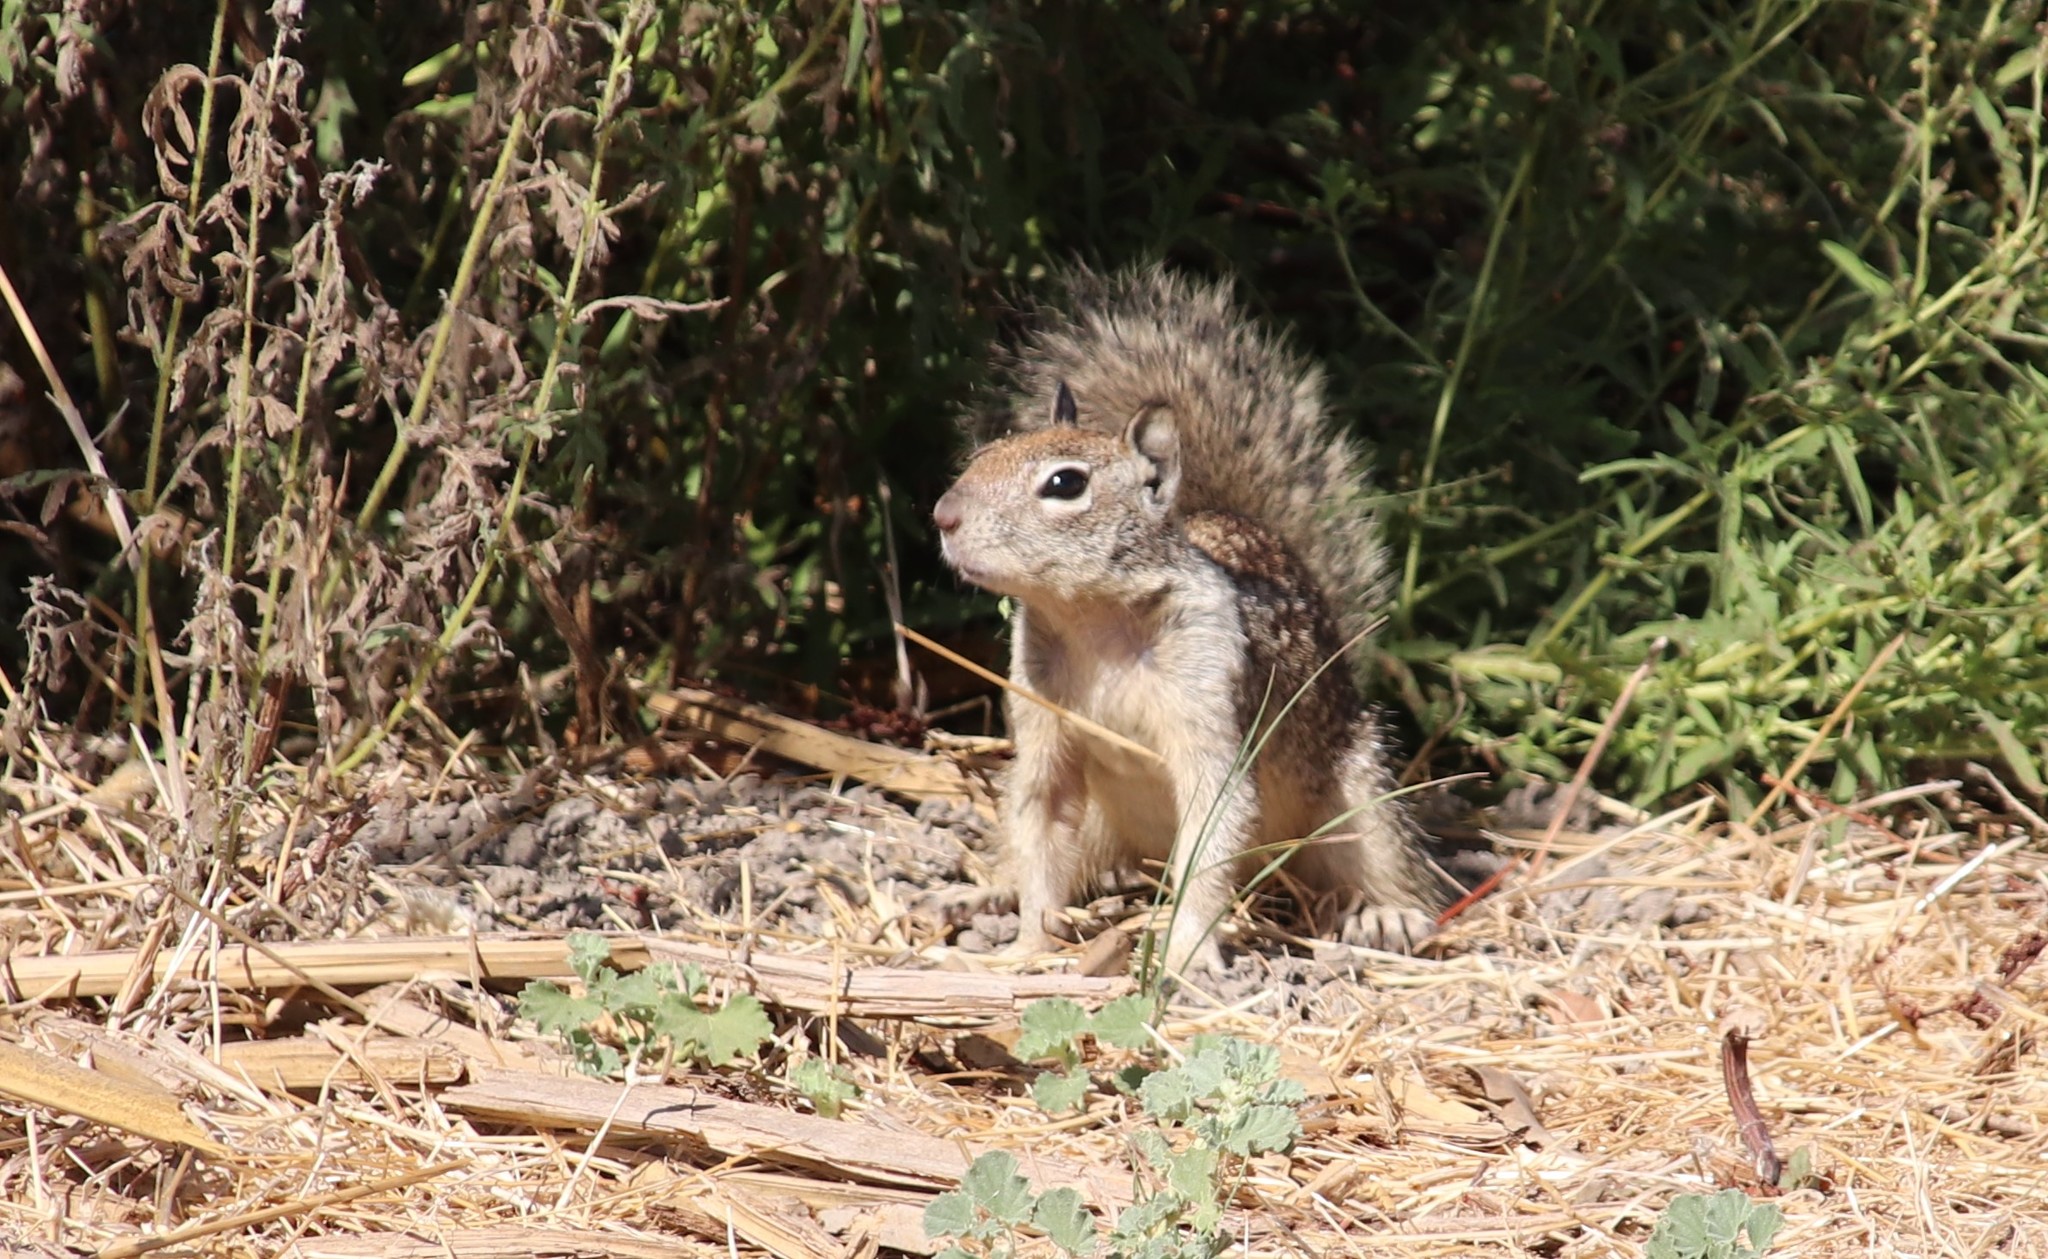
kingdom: Animalia
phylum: Chordata
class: Mammalia
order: Rodentia
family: Sciuridae
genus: Otospermophilus
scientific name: Otospermophilus beecheyi
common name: California ground squirrel
